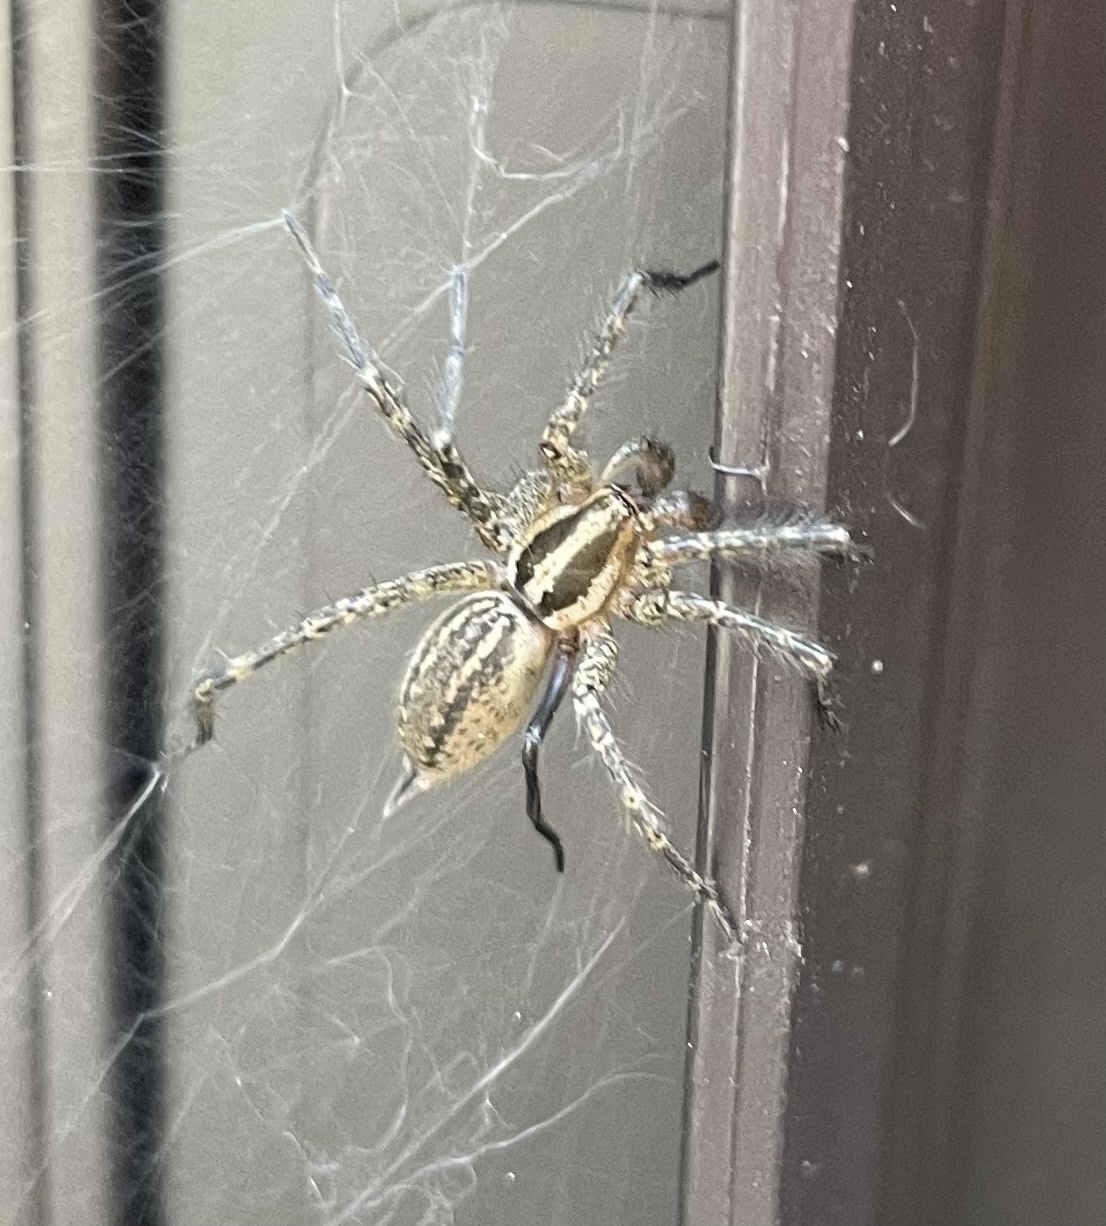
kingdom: Animalia
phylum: Arthropoda
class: Arachnida
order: Araneae
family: Agelenidae
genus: Agelenopsis
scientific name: Agelenopsis
